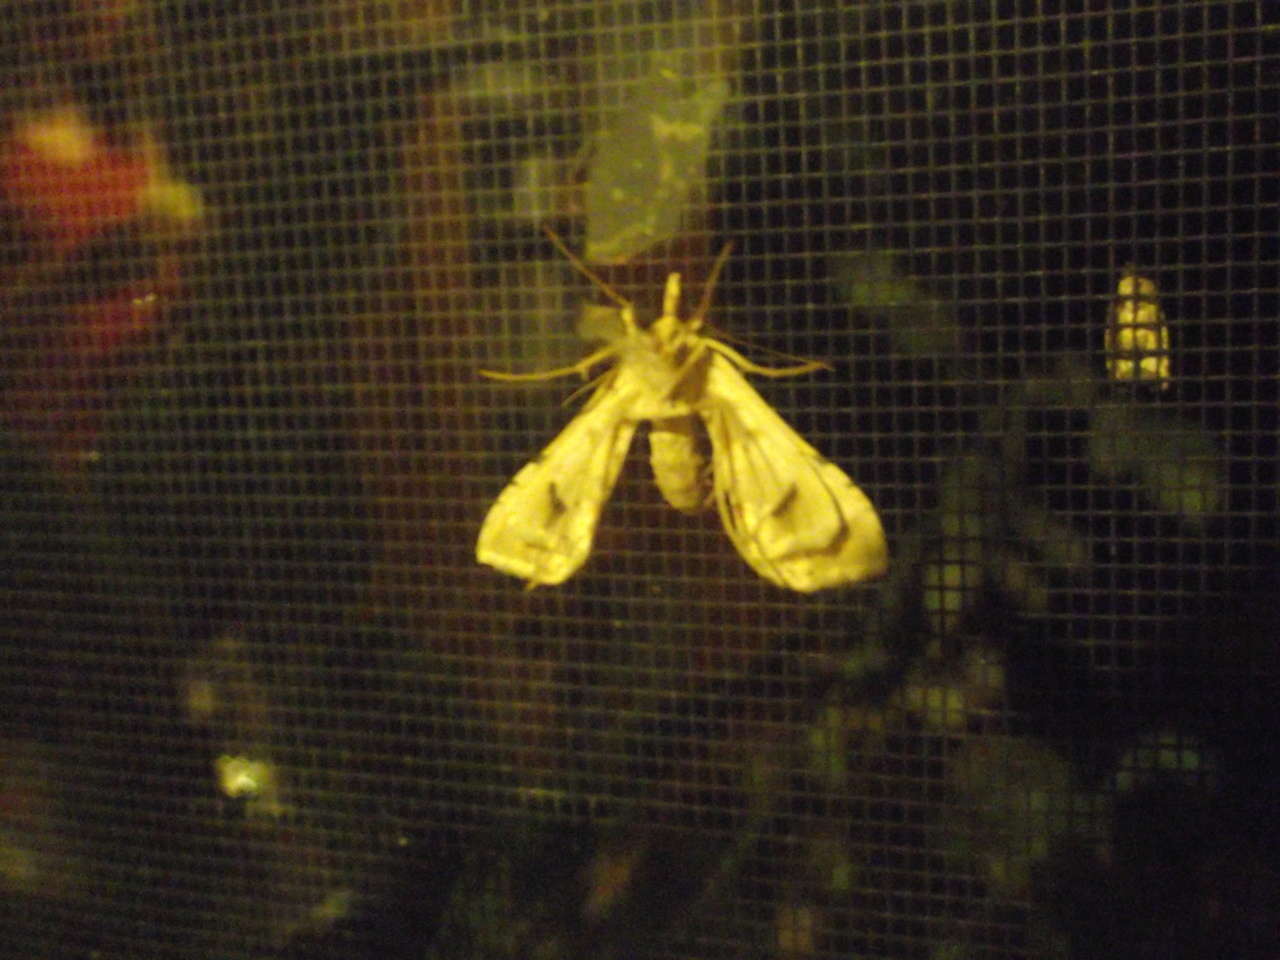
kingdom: Animalia
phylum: Arthropoda
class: Insecta
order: Lepidoptera
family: Crambidae
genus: Sceliodes
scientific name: Sceliodes cordalis
